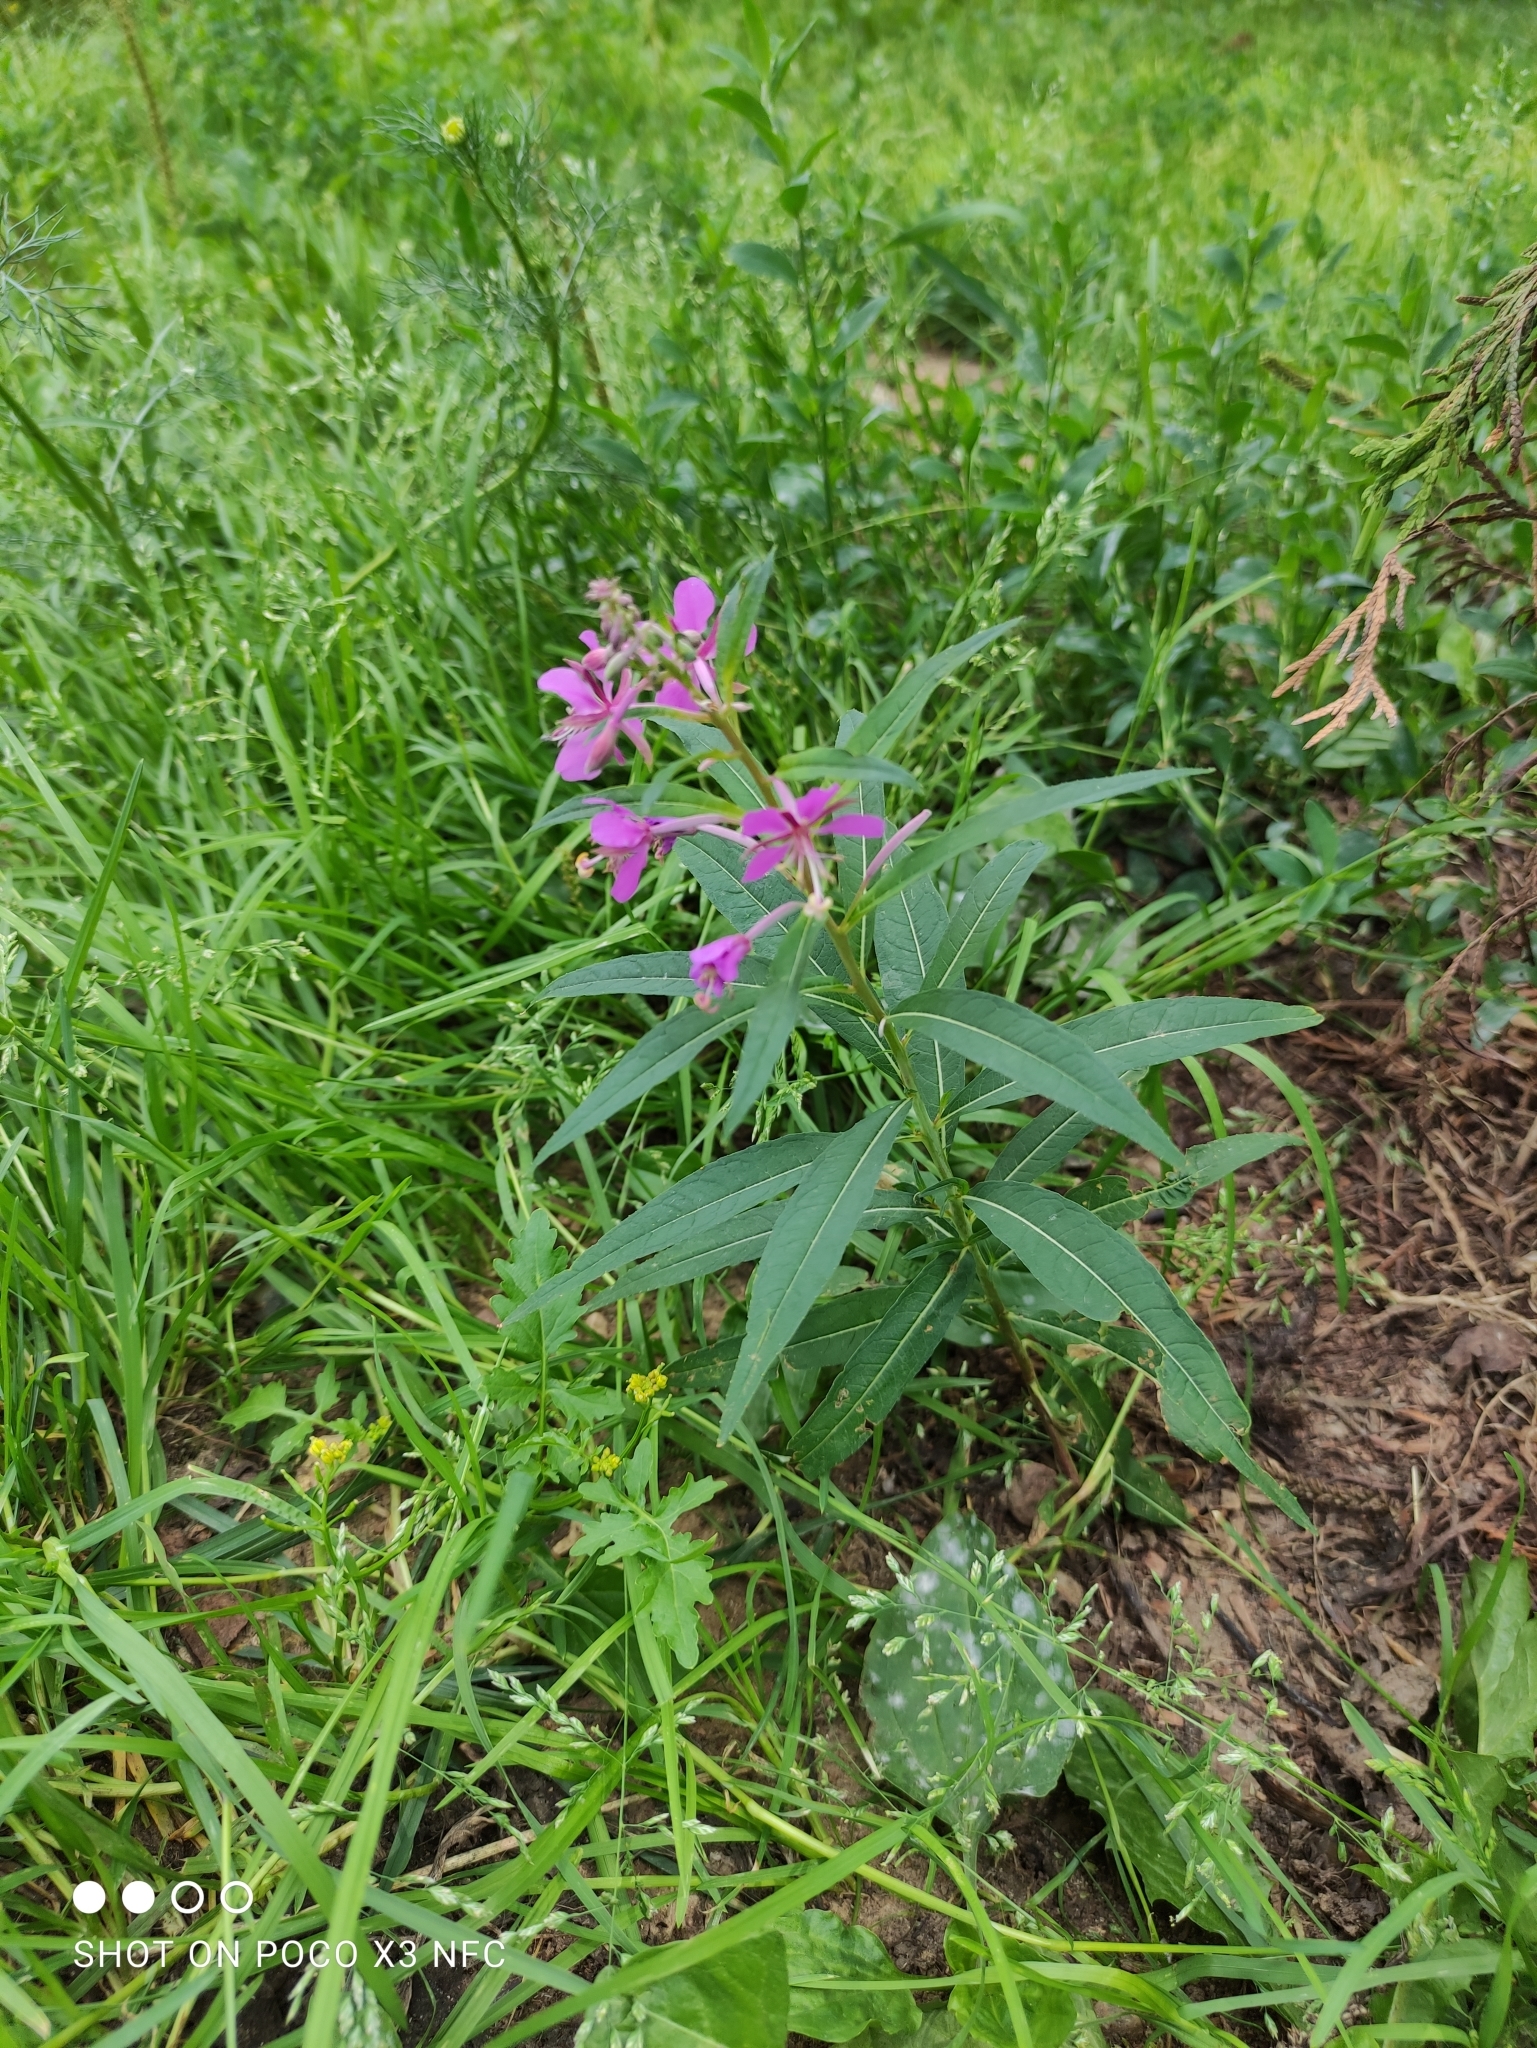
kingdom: Plantae
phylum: Tracheophyta
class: Magnoliopsida
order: Myrtales
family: Onagraceae
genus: Chamaenerion
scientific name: Chamaenerion angustifolium
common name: Fireweed
